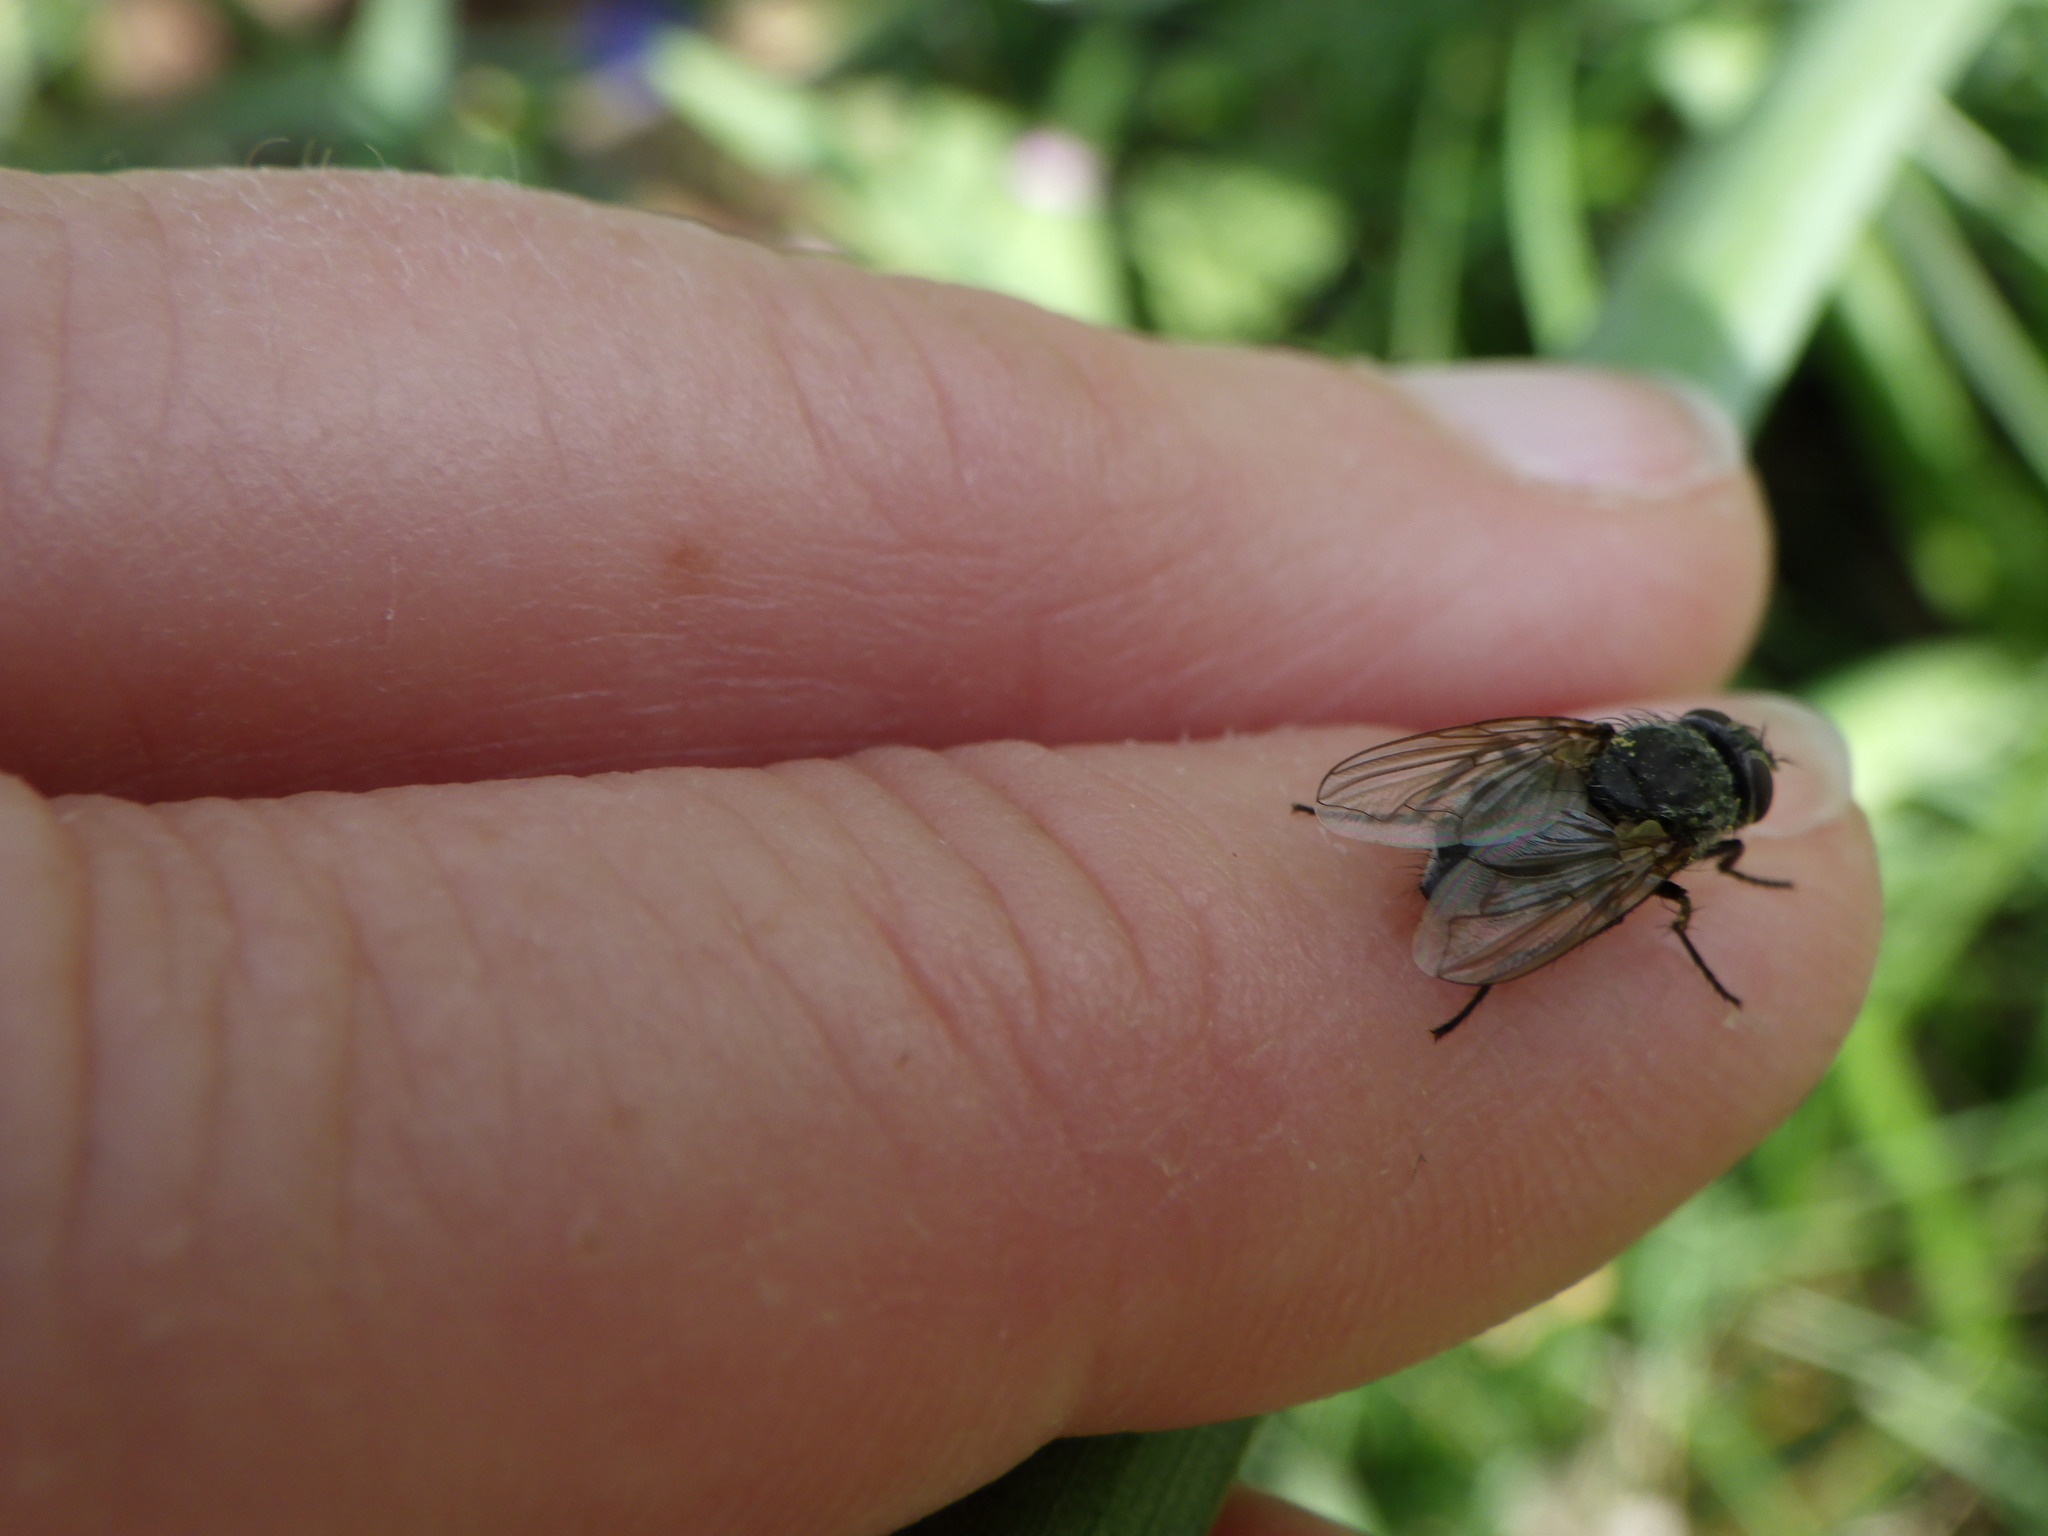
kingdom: Animalia
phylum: Arthropoda
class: Insecta
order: Diptera
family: Polleniidae
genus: Pollenia
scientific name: Pollenia
